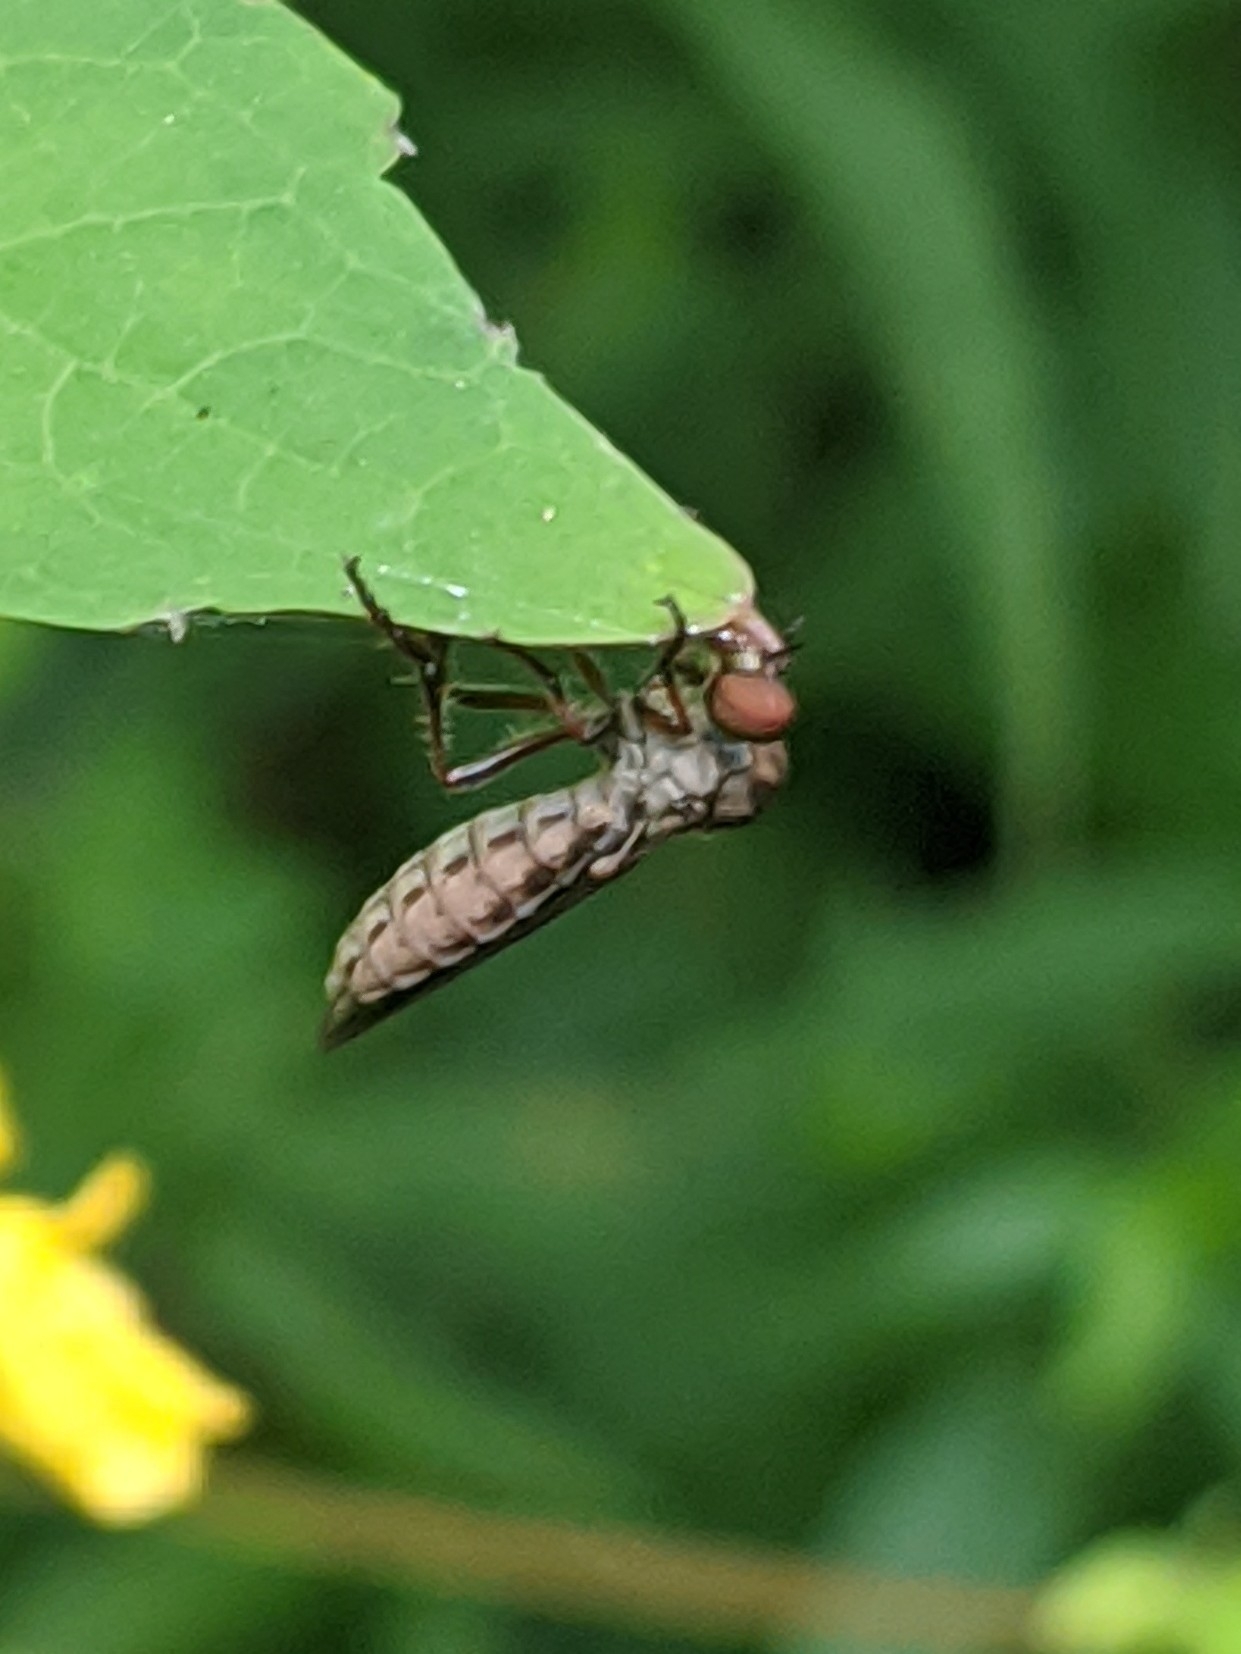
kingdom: Animalia
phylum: Arthropoda
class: Insecta
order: Diptera
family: Asilidae
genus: Holcocephala
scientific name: Holcocephala calva
